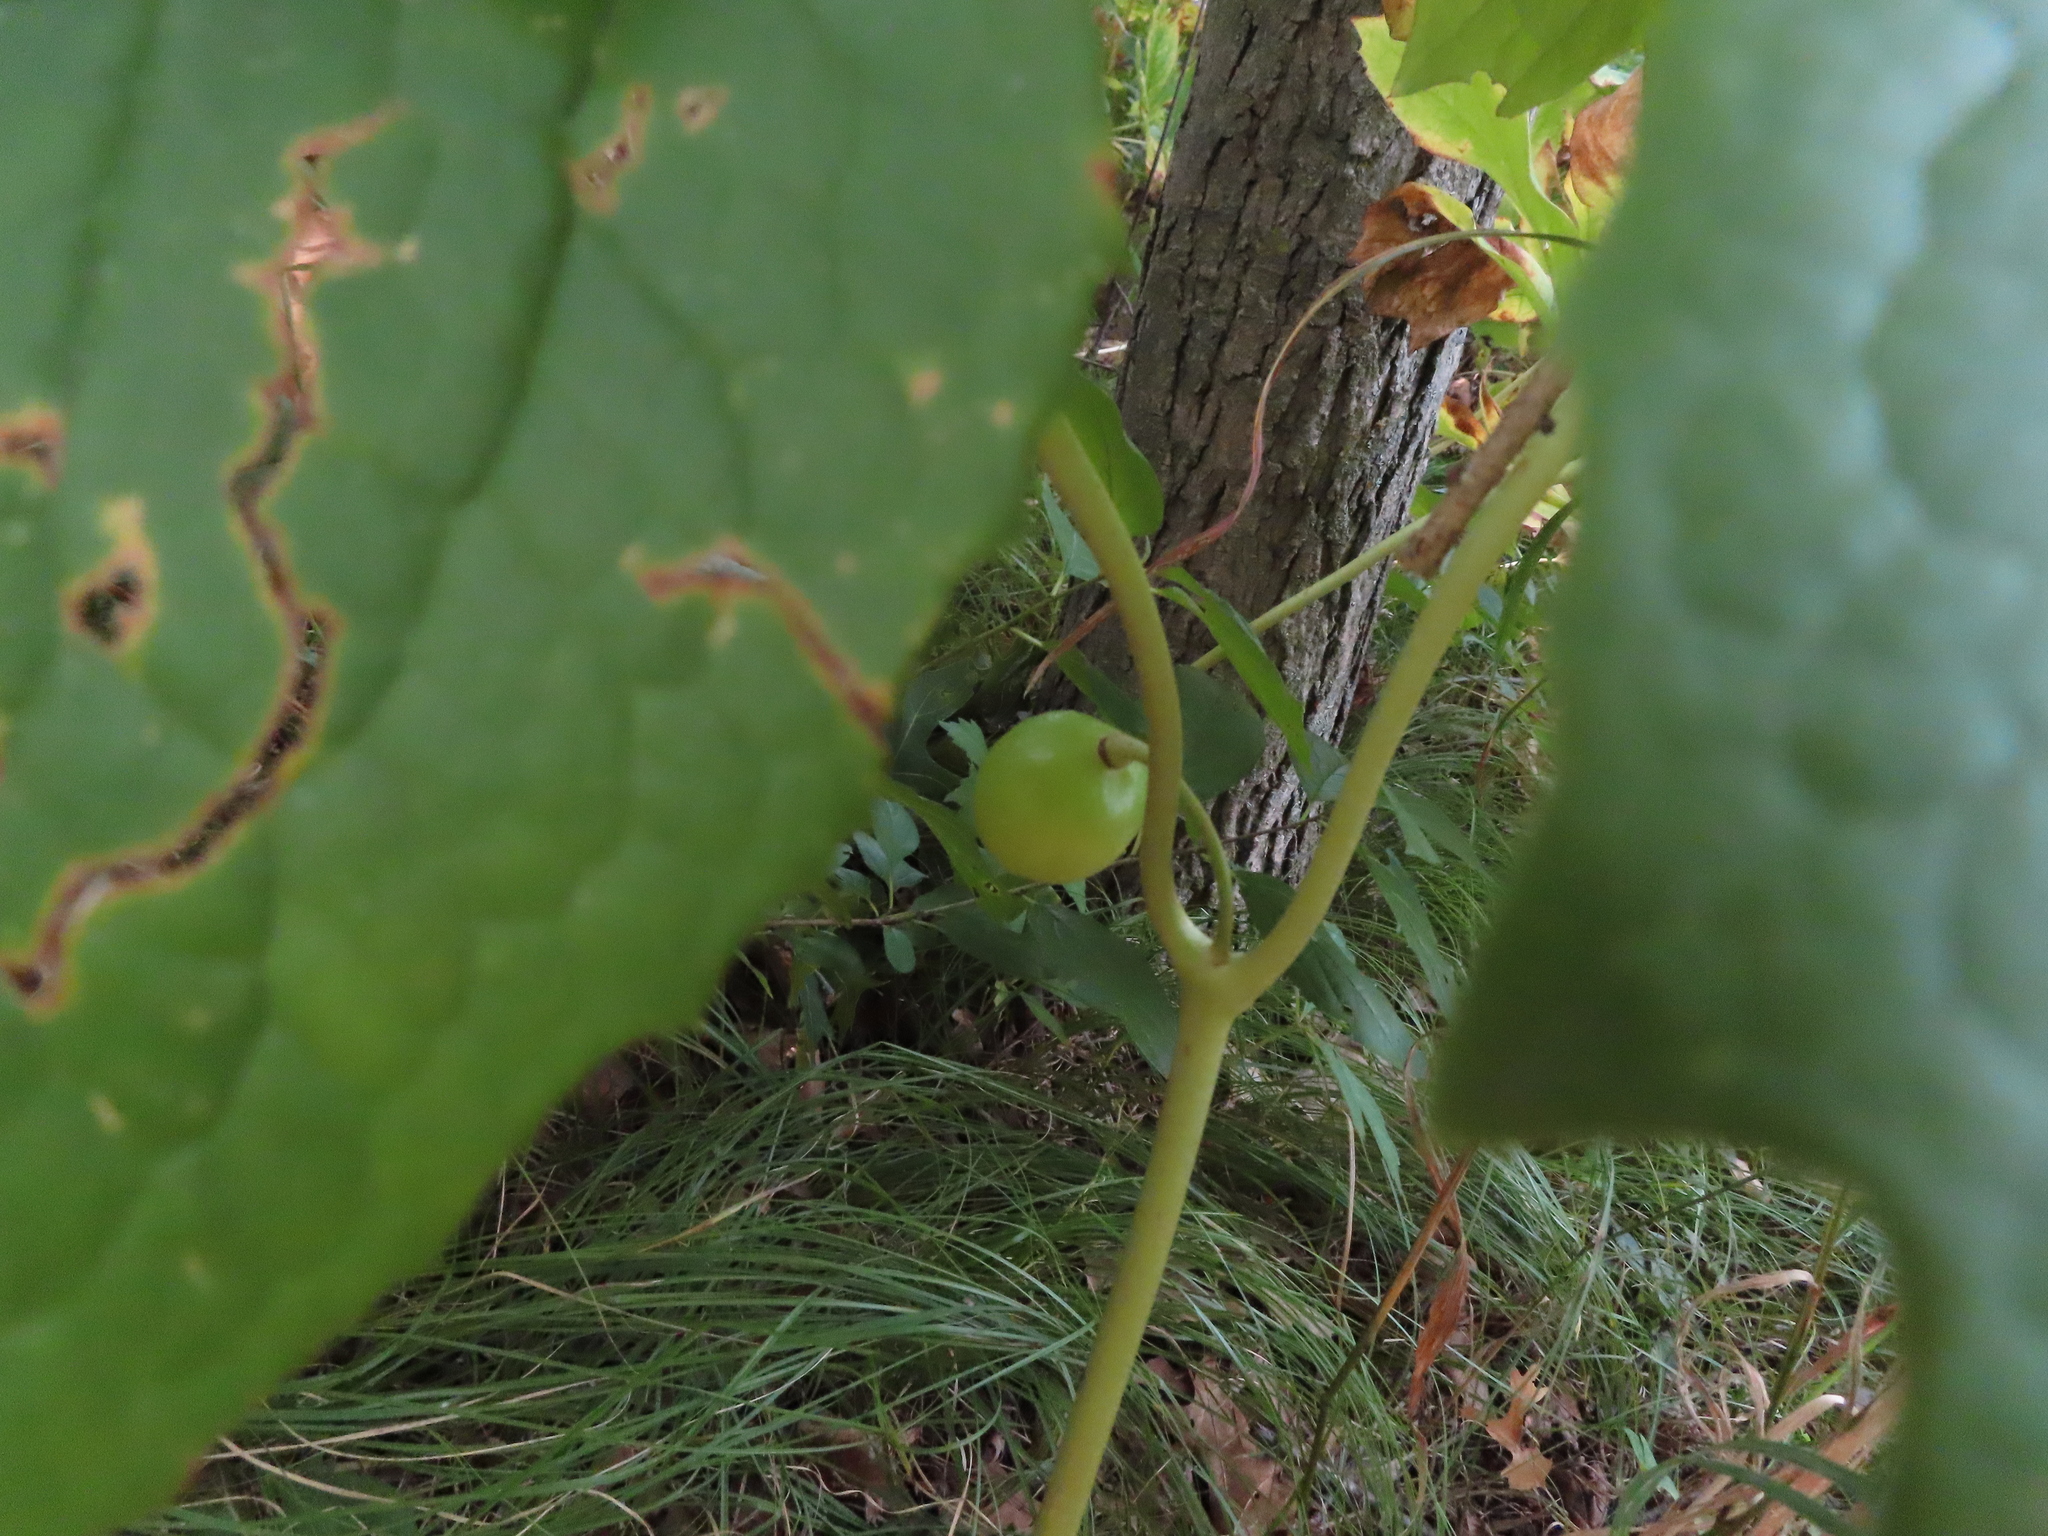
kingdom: Plantae
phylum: Tracheophyta
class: Magnoliopsida
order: Ranunculales
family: Berberidaceae
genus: Podophyllum
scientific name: Podophyllum peltatum
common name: Wild mandrake
